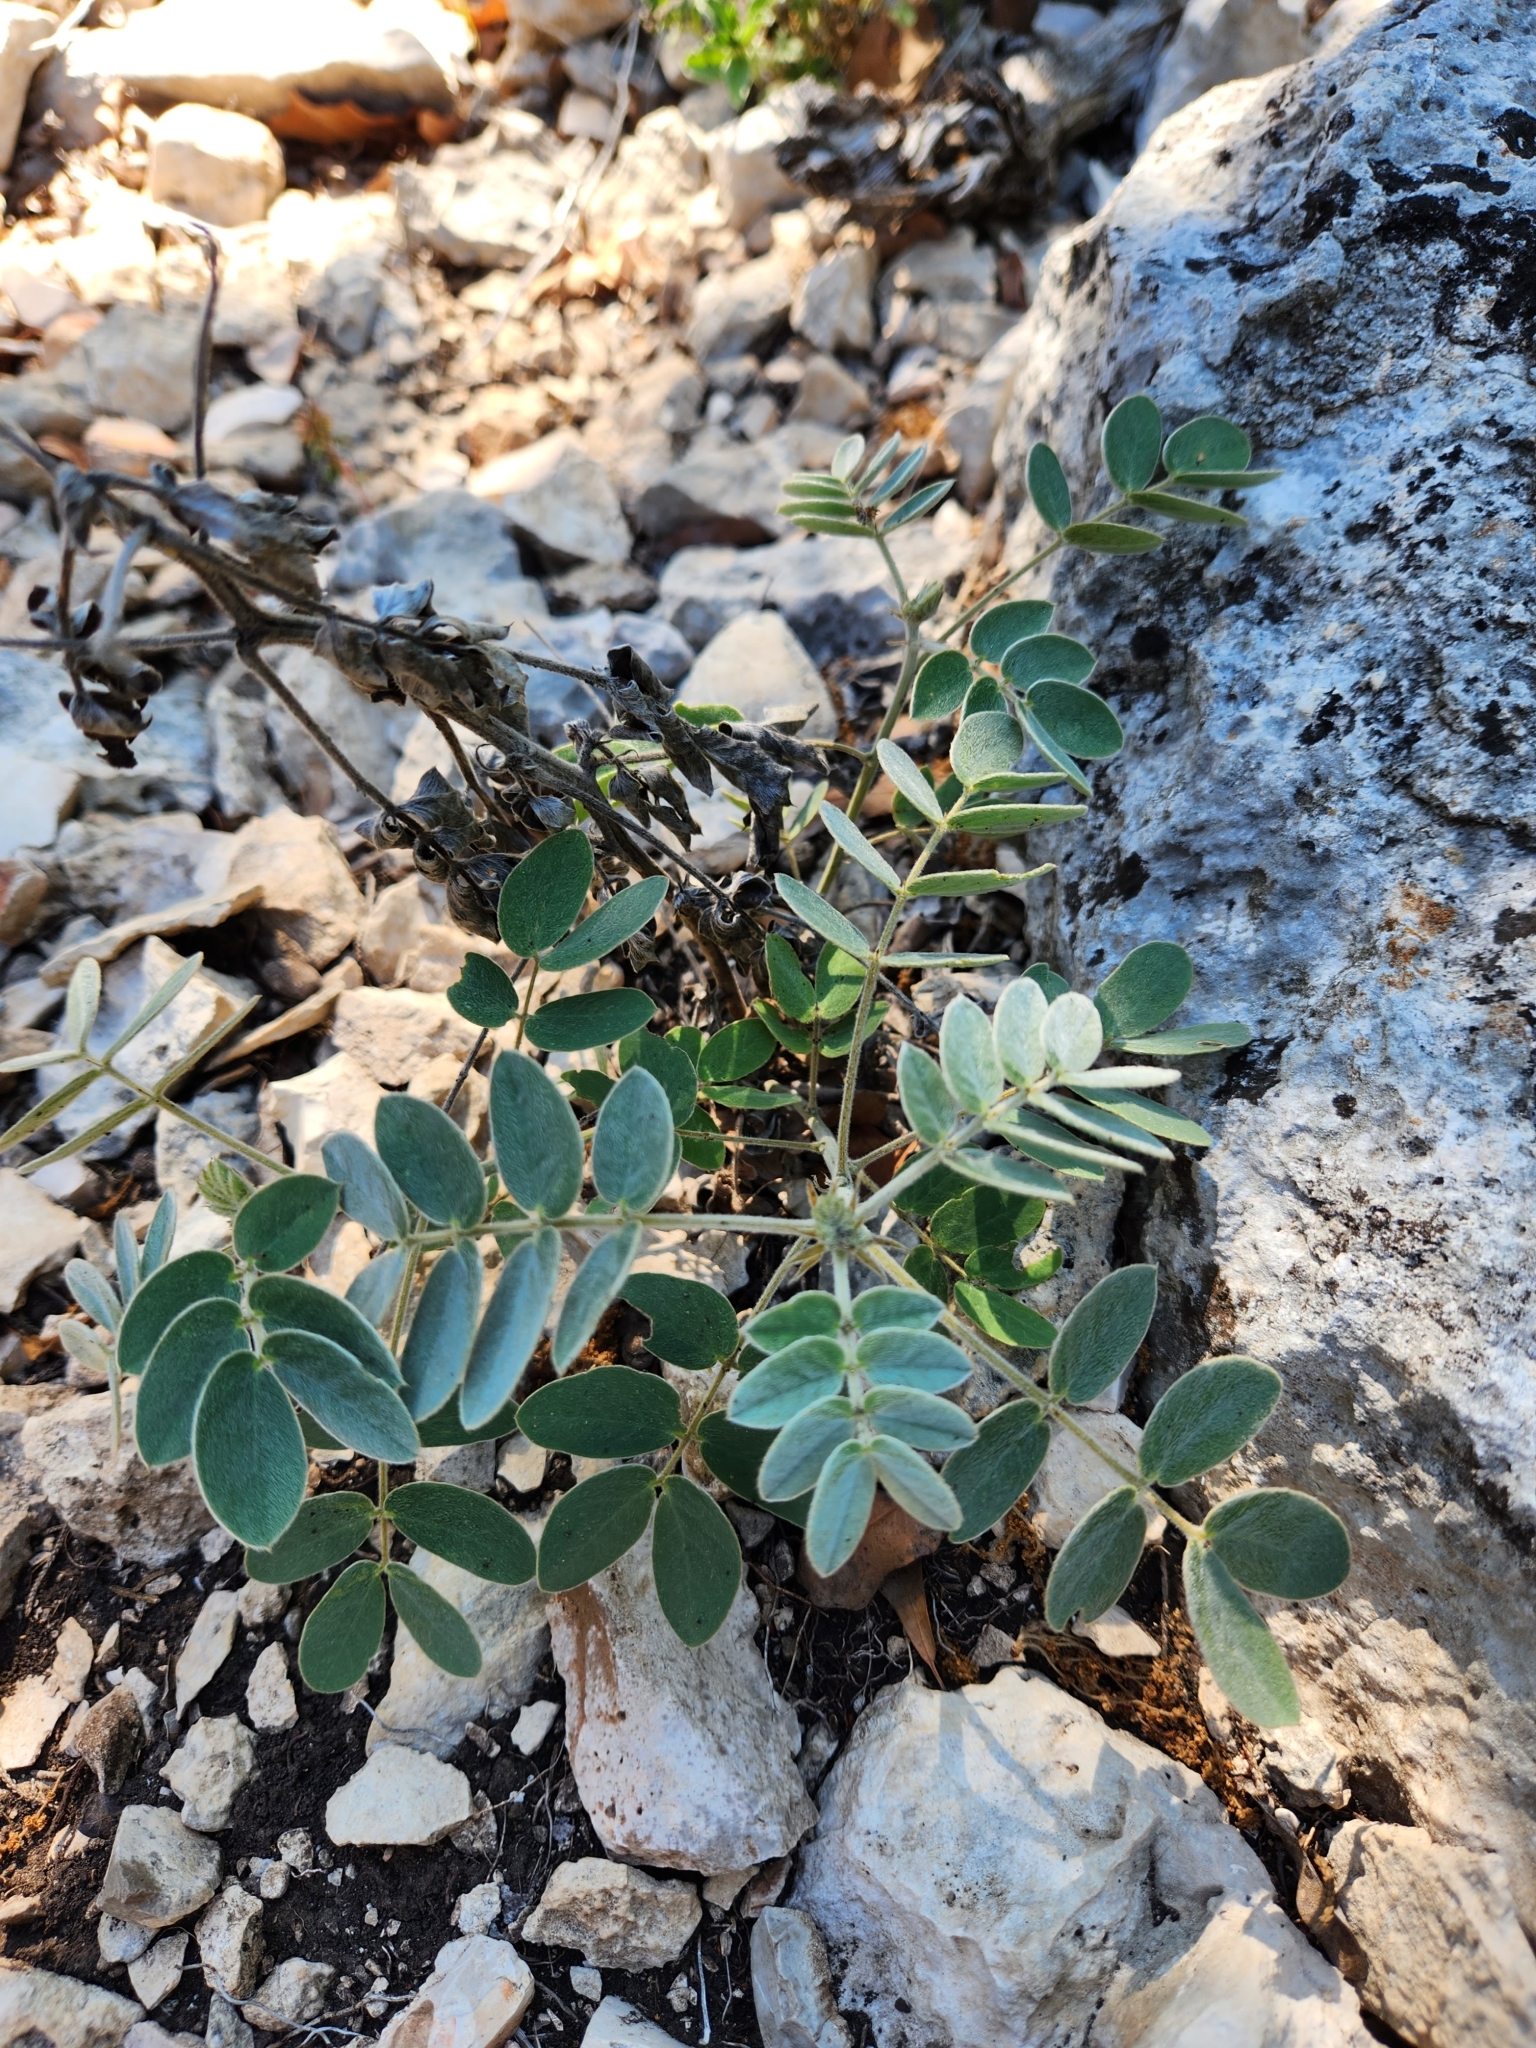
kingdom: Plantae
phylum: Tracheophyta
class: Magnoliopsida
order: Fabales
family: Fabaceae
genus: Senna
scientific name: Senna lindheimeriana
